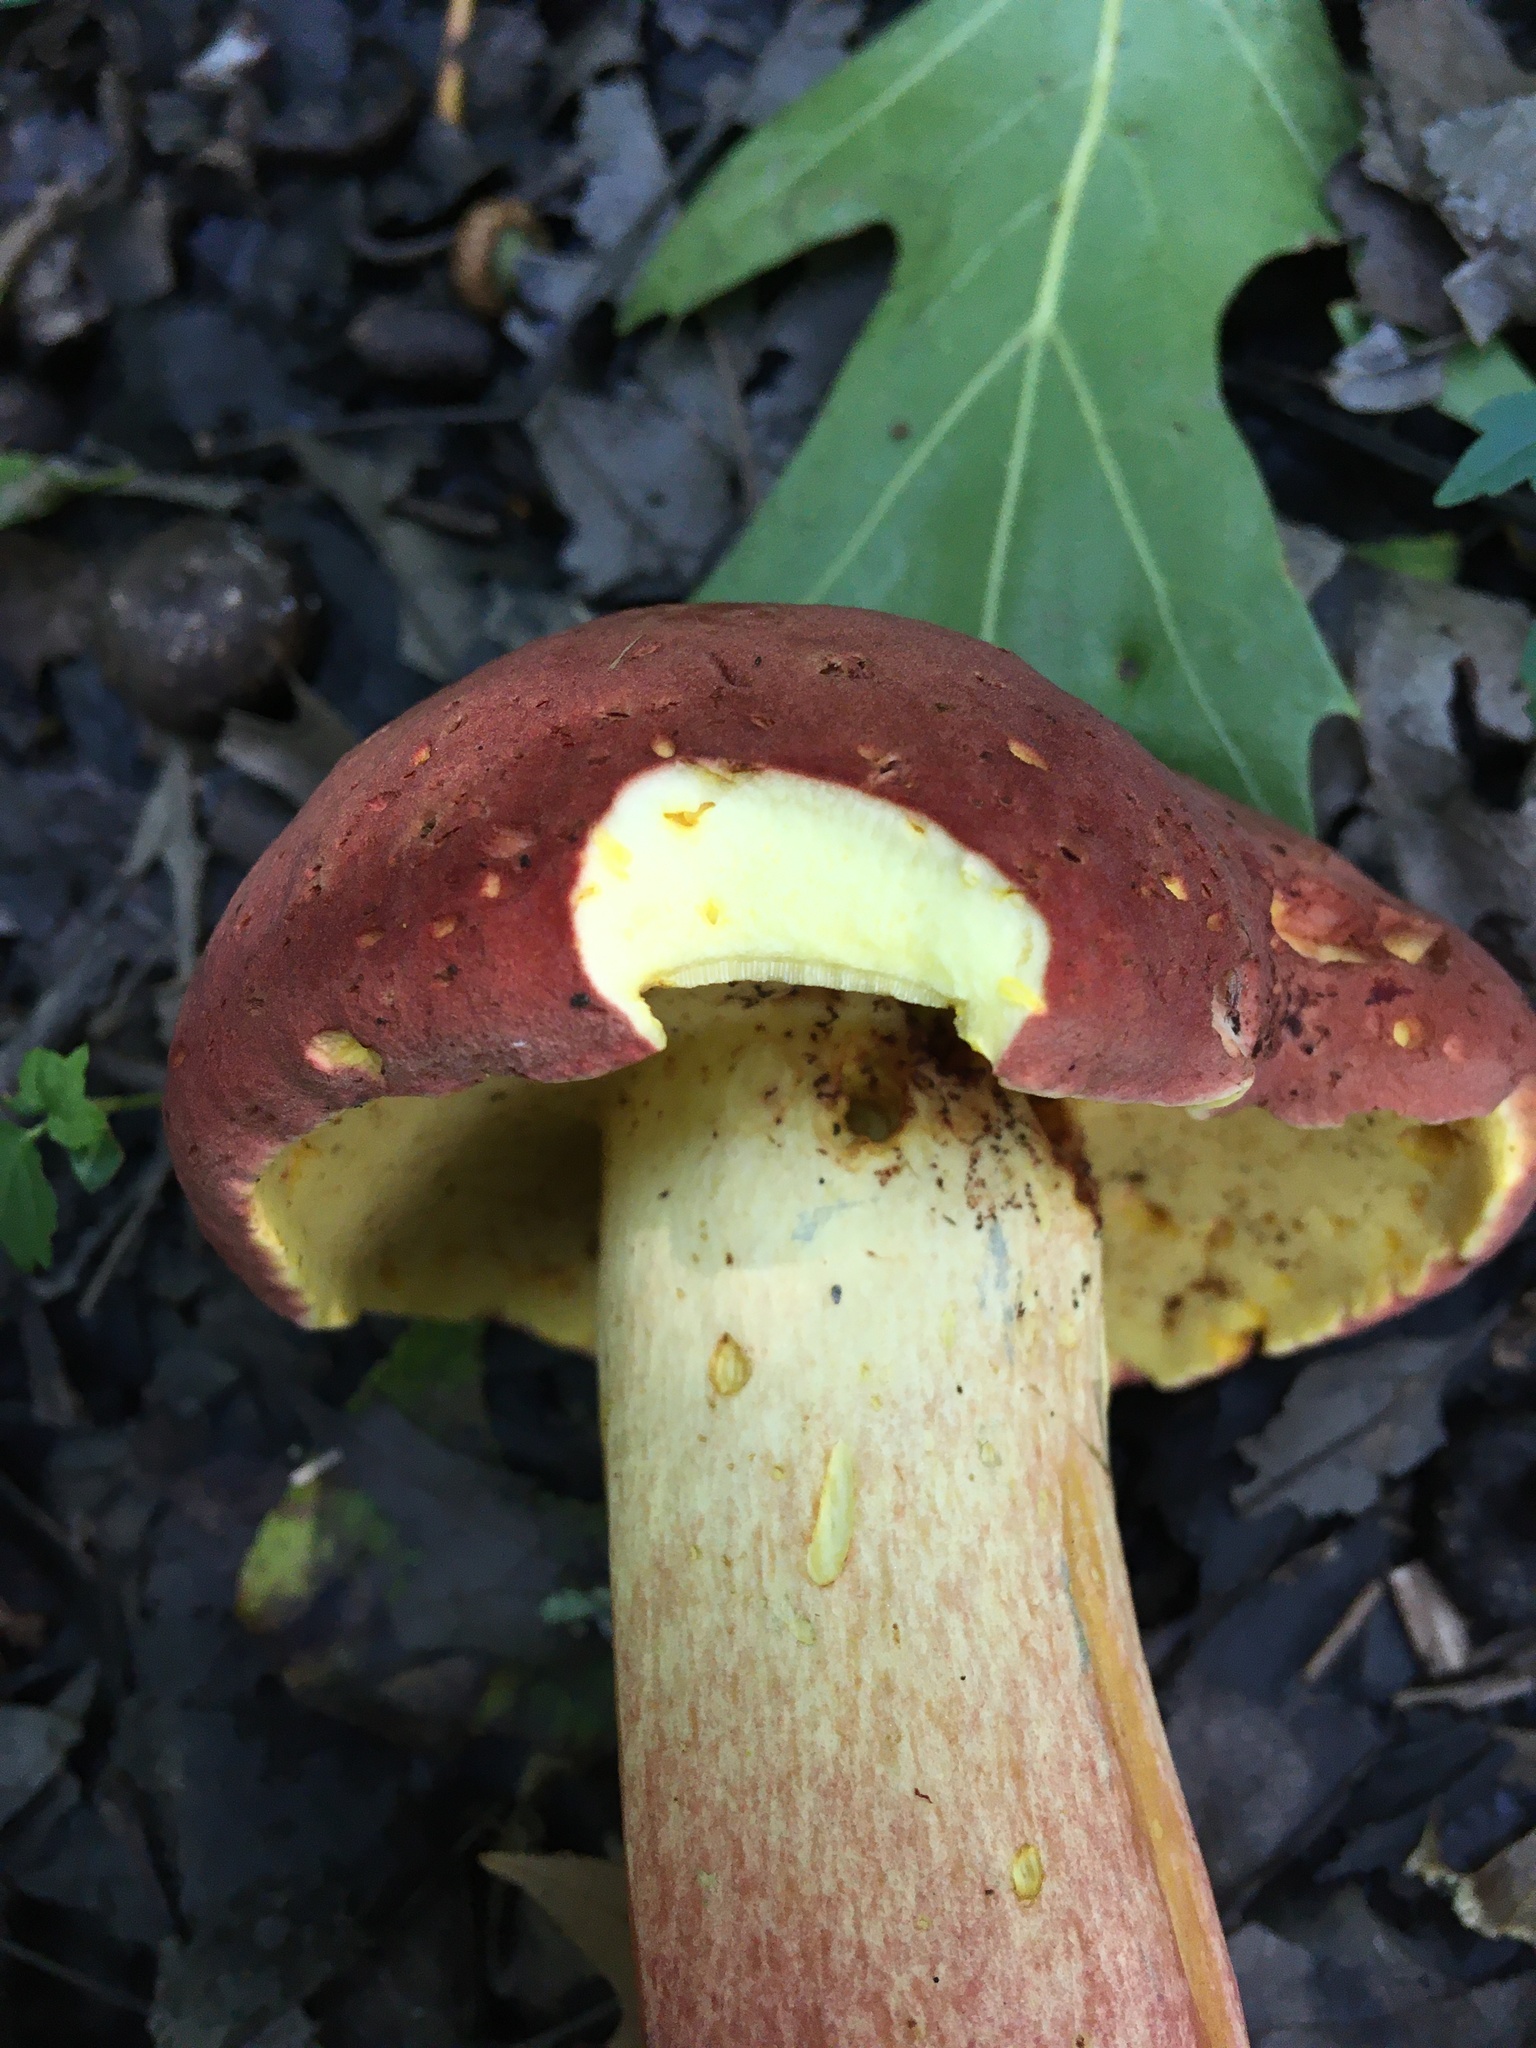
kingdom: Fungi
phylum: Basidiomycota
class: Agaricomycetes
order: Boletales
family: Boletaceae
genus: Baorangia
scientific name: Baorangia bicolor
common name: Two-colored bolete
